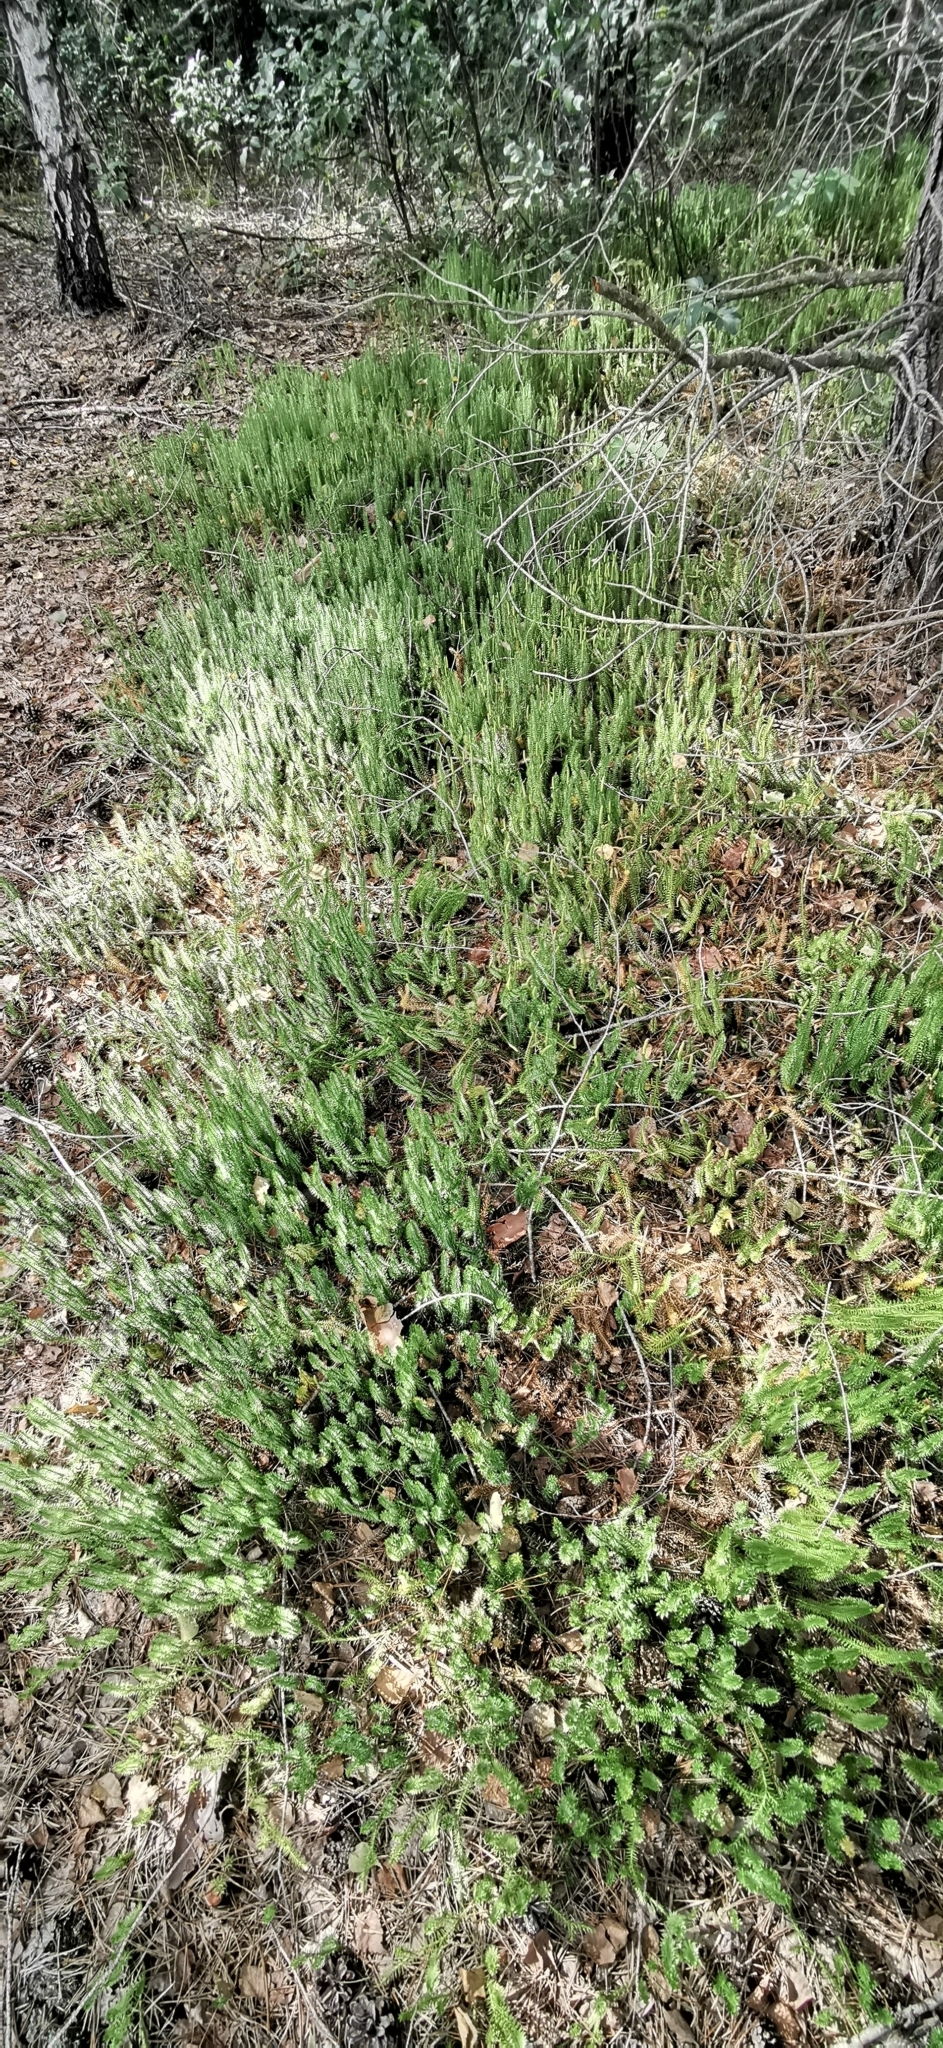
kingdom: Plantae
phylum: Tracheophyta
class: Lycopodiopsida
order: Lycopodiales
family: Lycopodiaceae
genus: Spinulum
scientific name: Spinulum annotinum
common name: Interrupted club-moss
